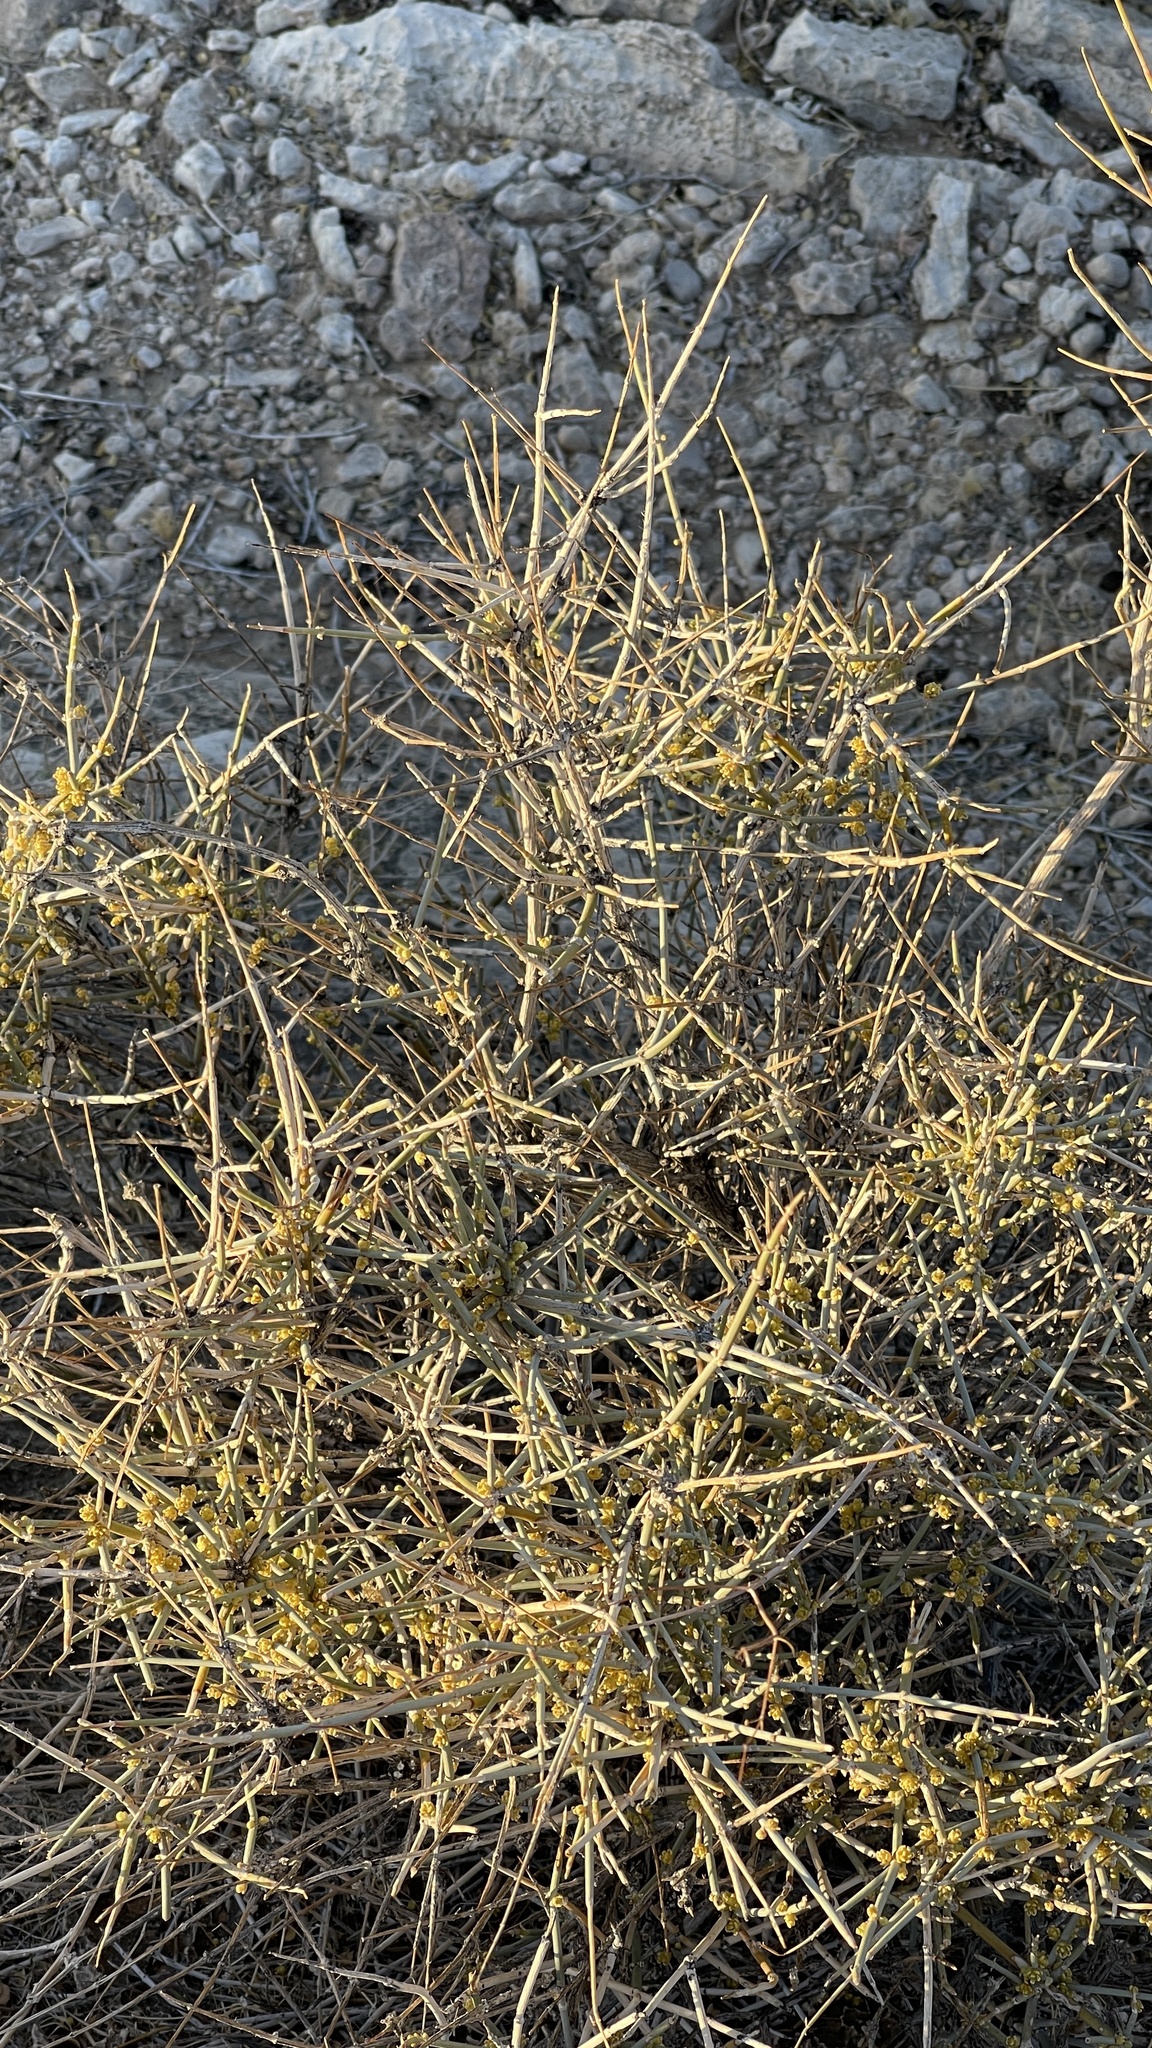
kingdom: Plantae
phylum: Tracheophyta
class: Gnetopsida
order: Ephedrales
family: Ephedraceae
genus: Ephedra
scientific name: Ephedra nevadensis
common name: Gray ephedra
